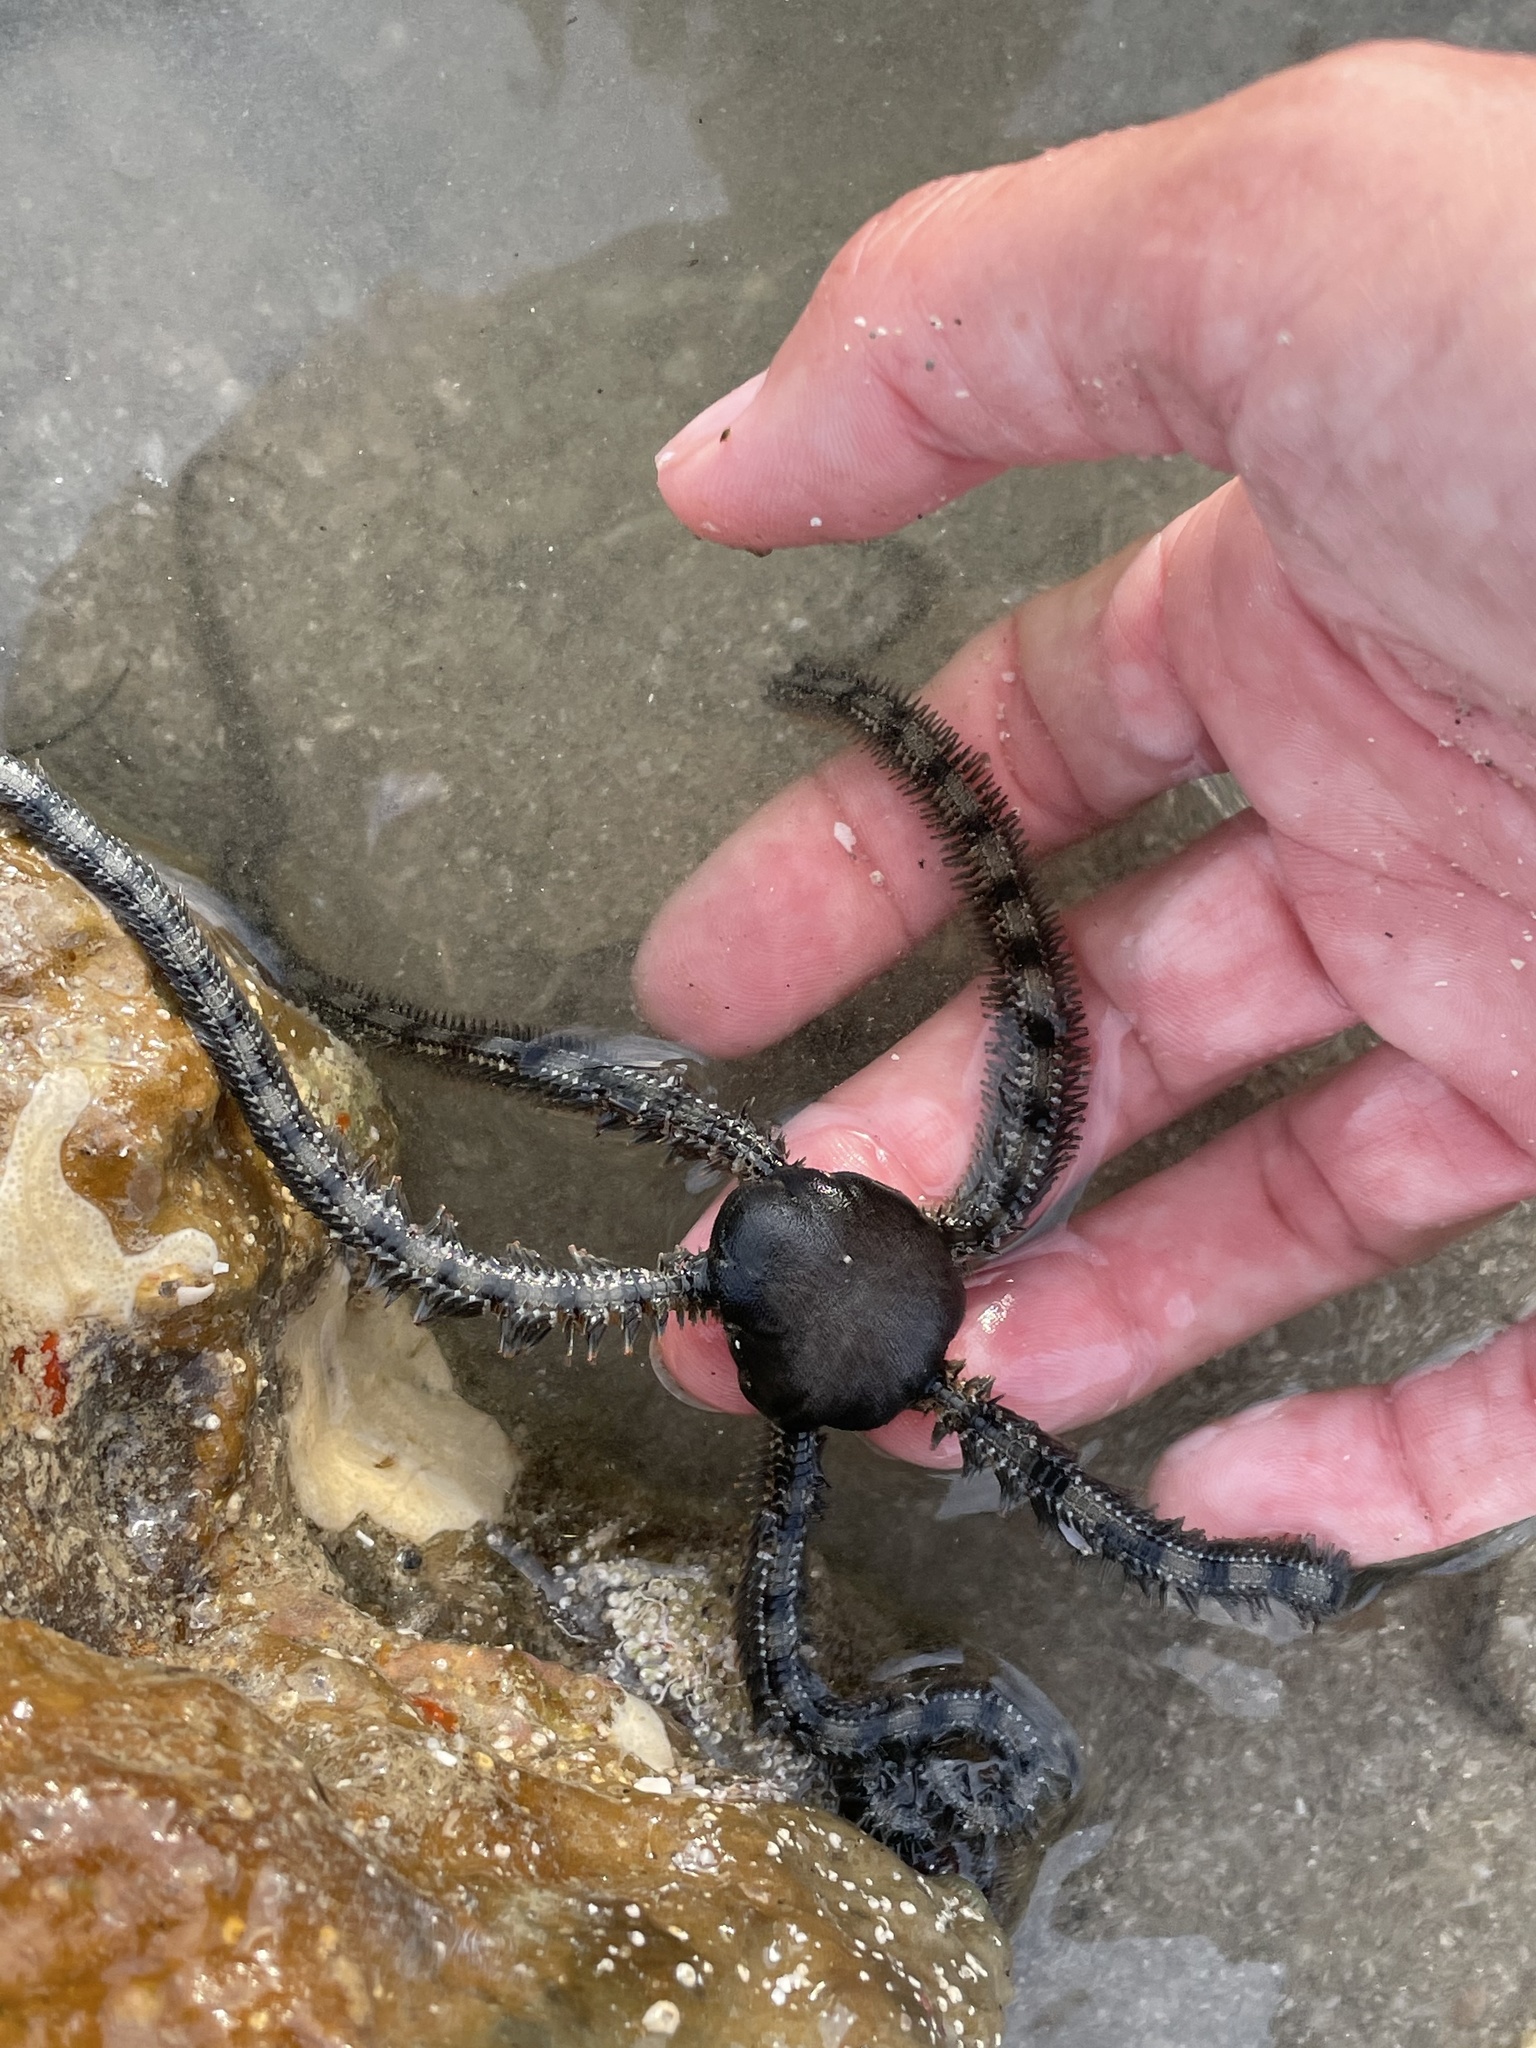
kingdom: Animalia
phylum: Echinodermata
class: Ophiuroidea
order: Ophiacanthida
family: Ophiocomidae
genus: Ophiocomella
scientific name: Ophiocomella alexandri
